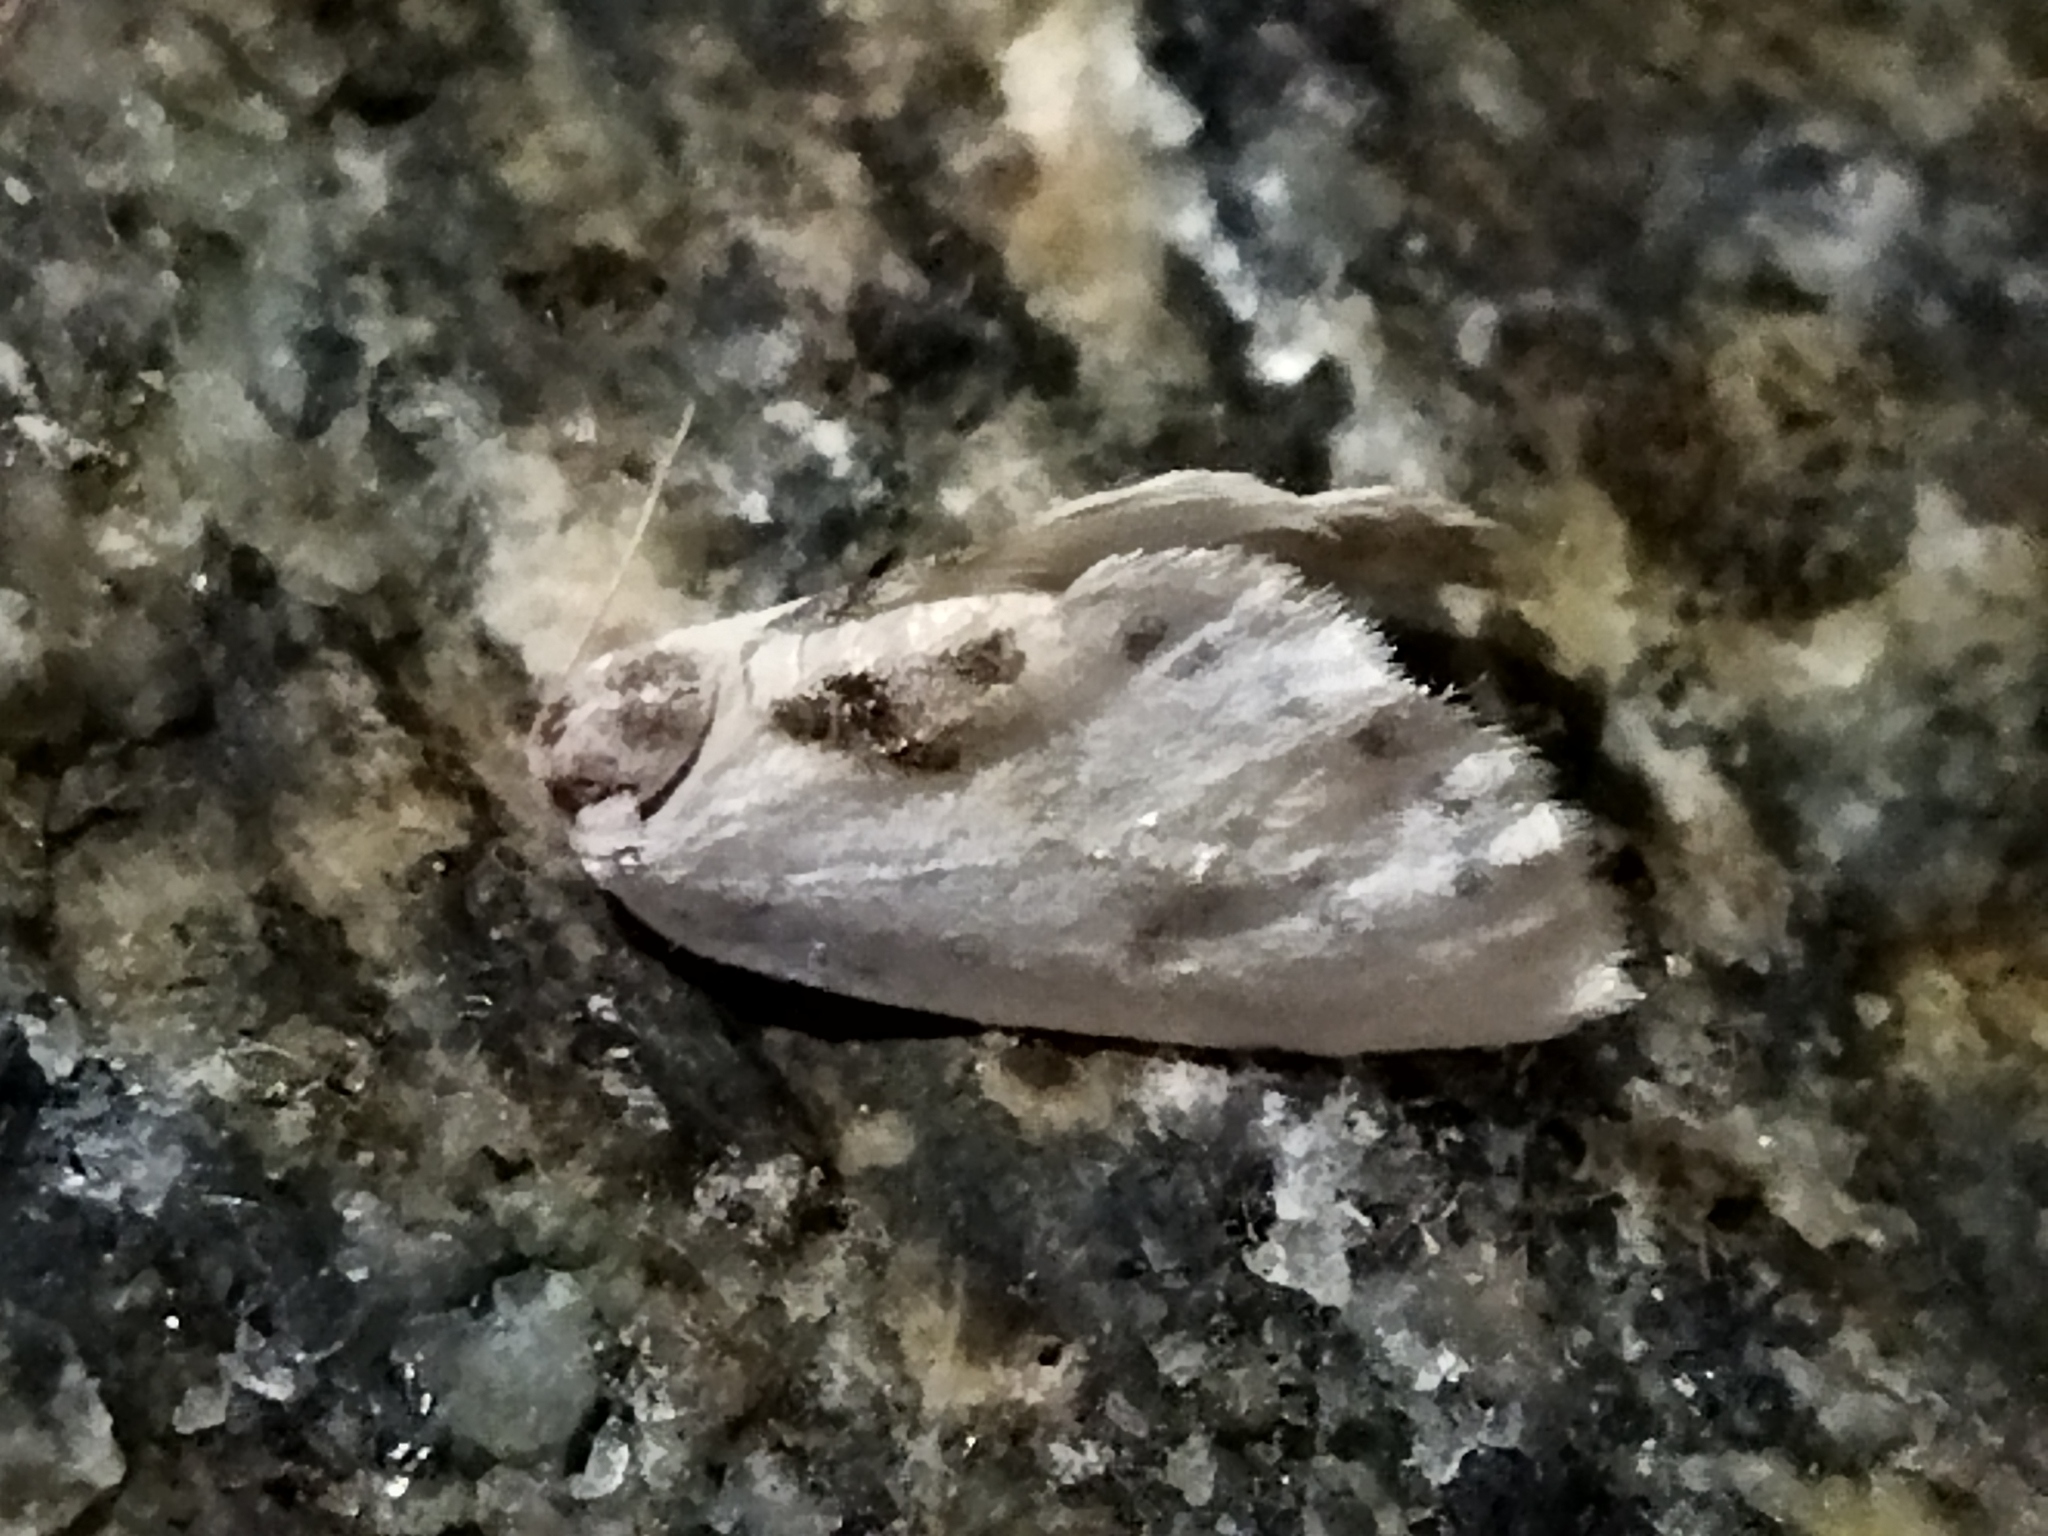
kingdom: Animalia
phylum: Arthropoda
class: Insecta
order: Lepidoptera
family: Drepanidae
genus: Cilix
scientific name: Cilix glaucata
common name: Chinese character
